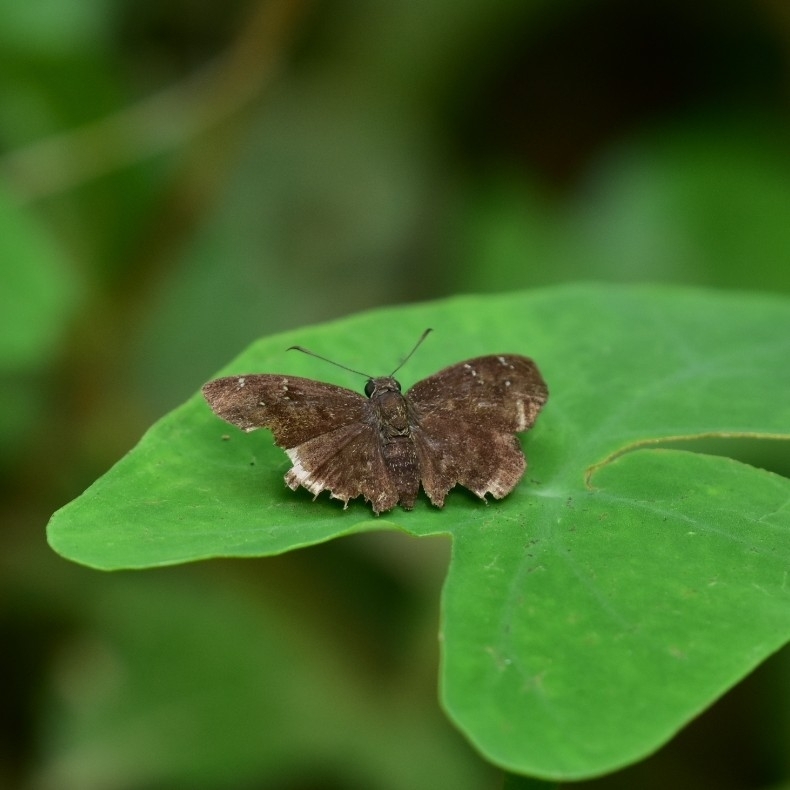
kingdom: Animalia
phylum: Arthropoda
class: Insecta
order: Lepidoptera
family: Hesperiidae
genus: Sarangesa
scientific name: Sarangesa dasahara
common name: Common small flat
